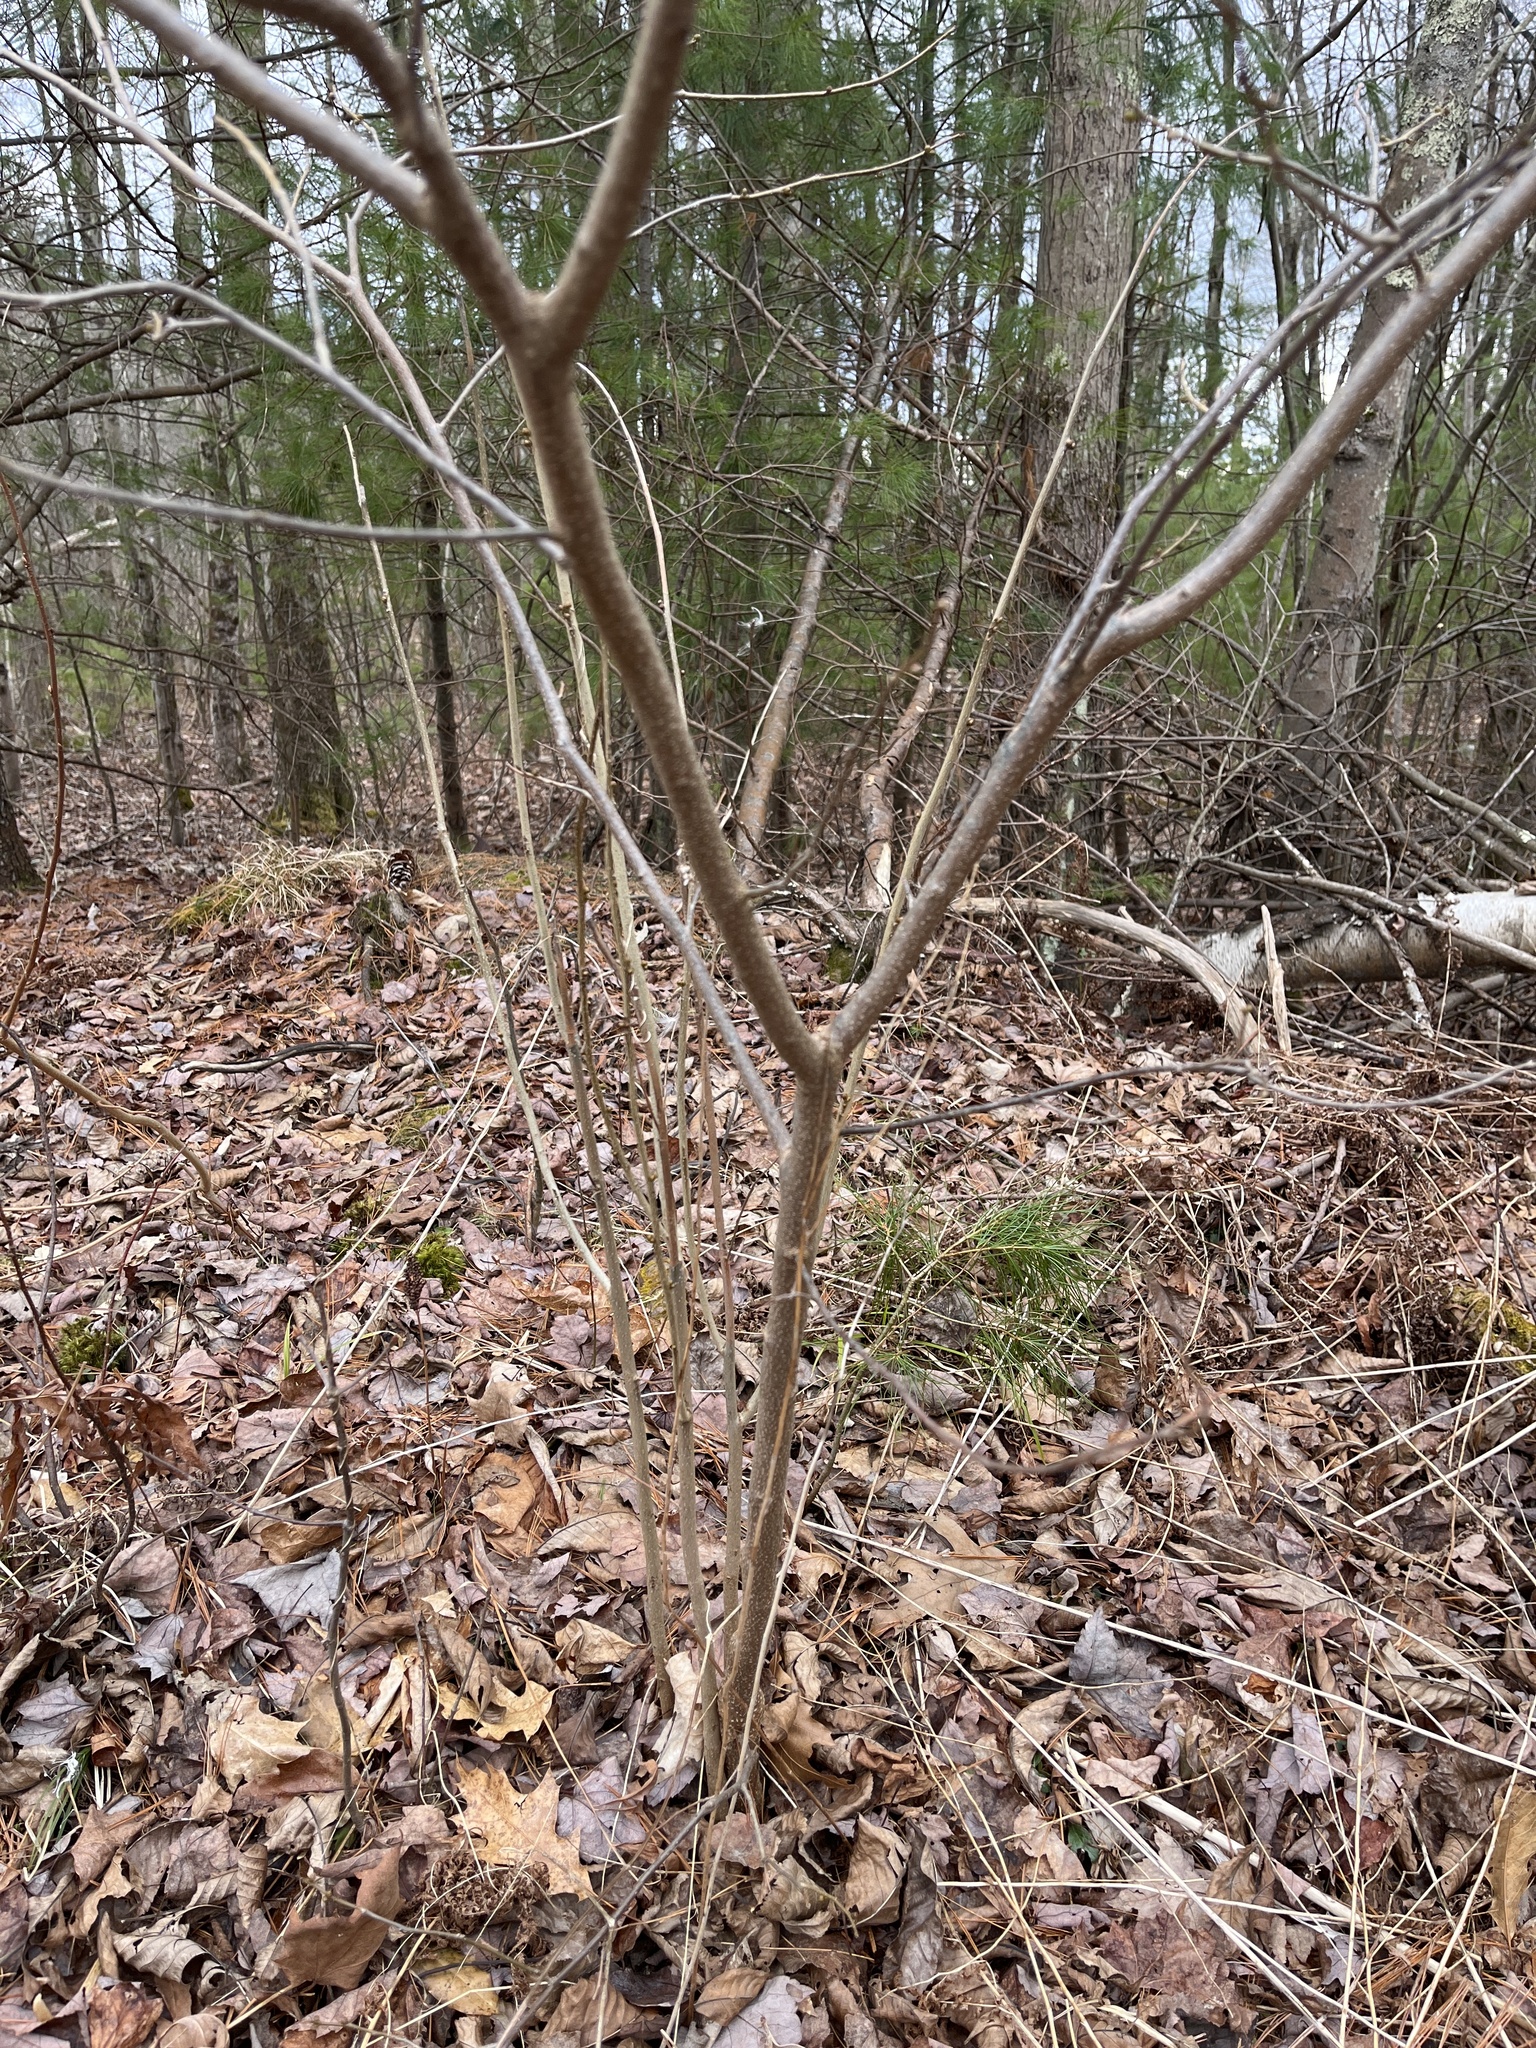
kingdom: Plantae
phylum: Tracheophyta
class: Magnoliopsida
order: Laurales
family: Lauraceae
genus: Lindera
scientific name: Lindera benzoin
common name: Spicebush
